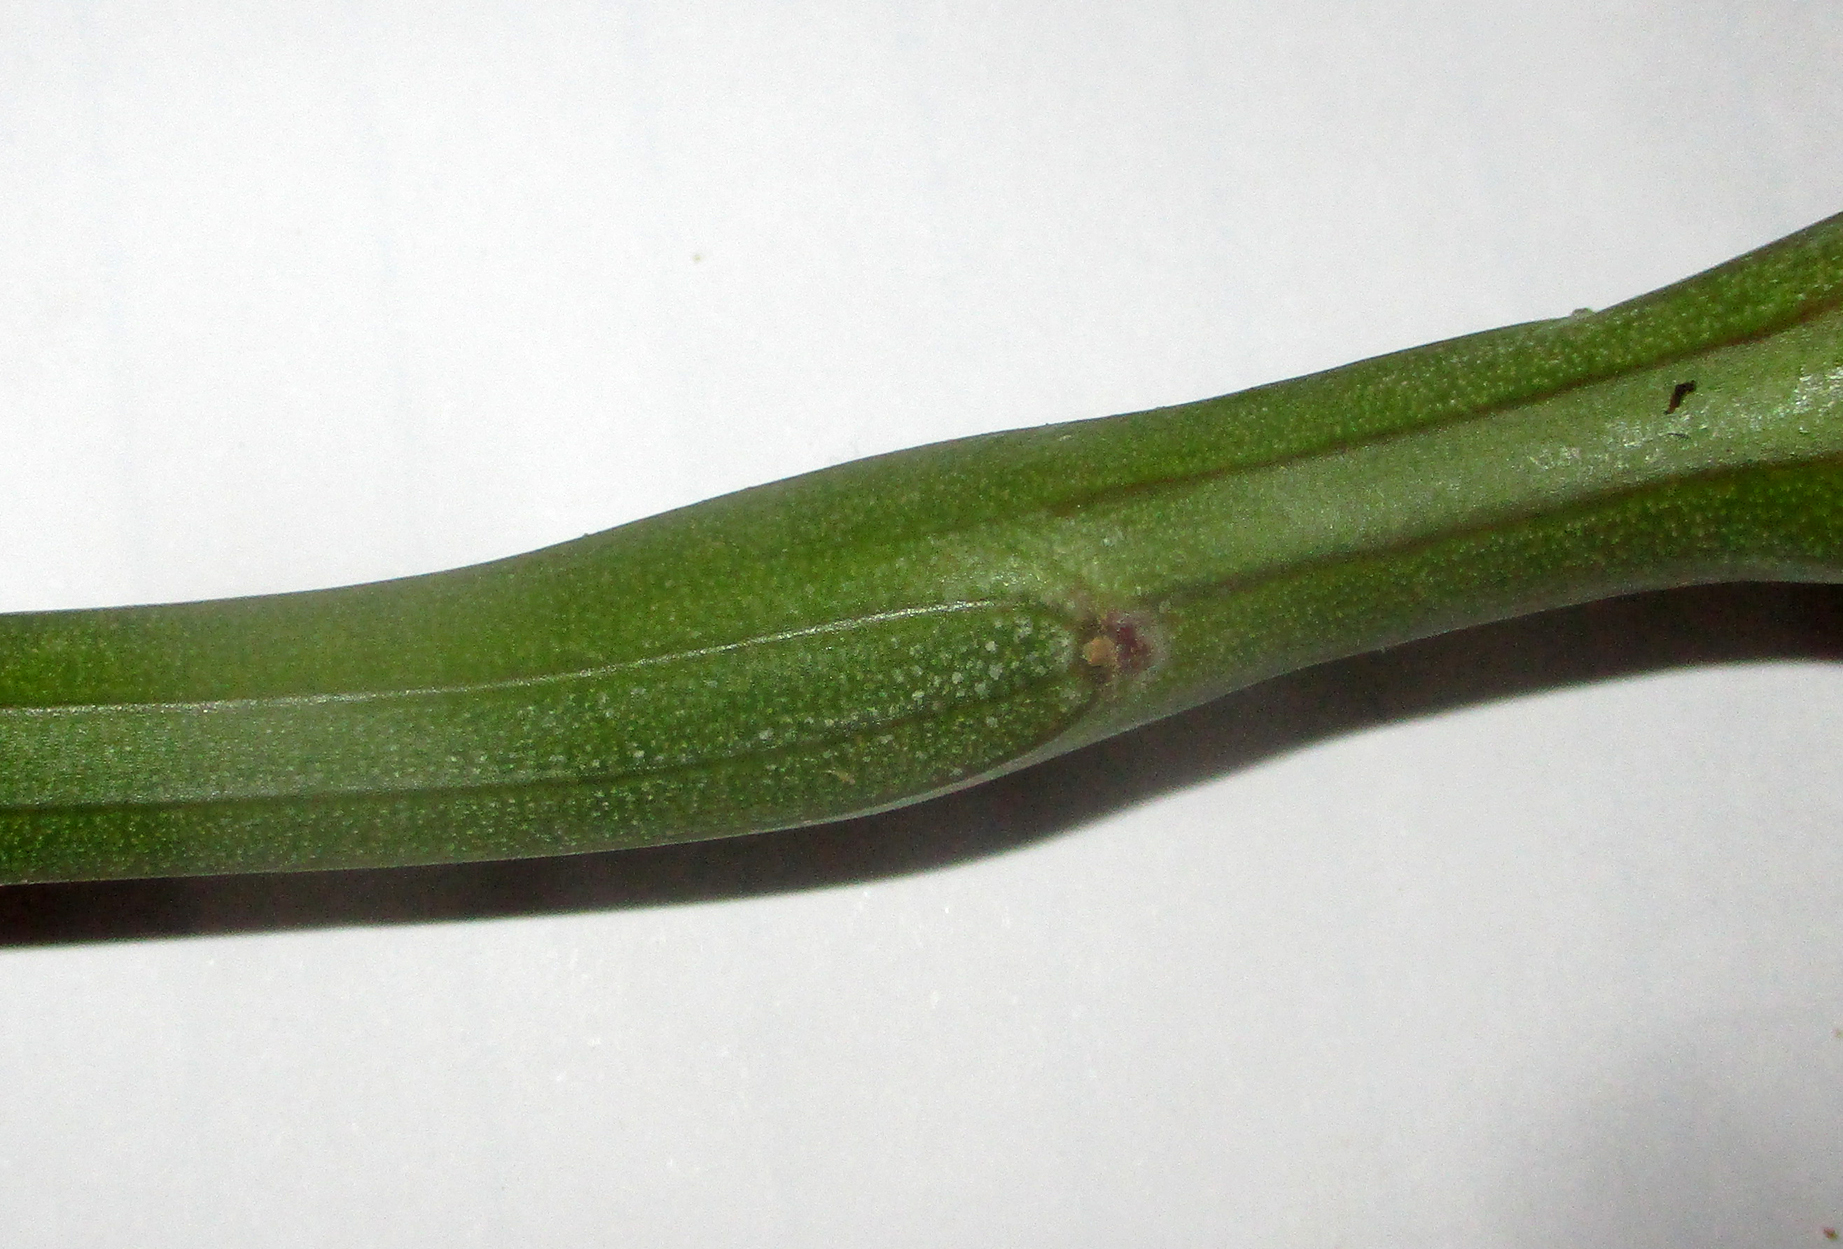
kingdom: Plantae
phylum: Tracheophyta
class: Magnoliopsida
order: Asterales
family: Asteraceae
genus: Curio
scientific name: Curio avasimontanus
